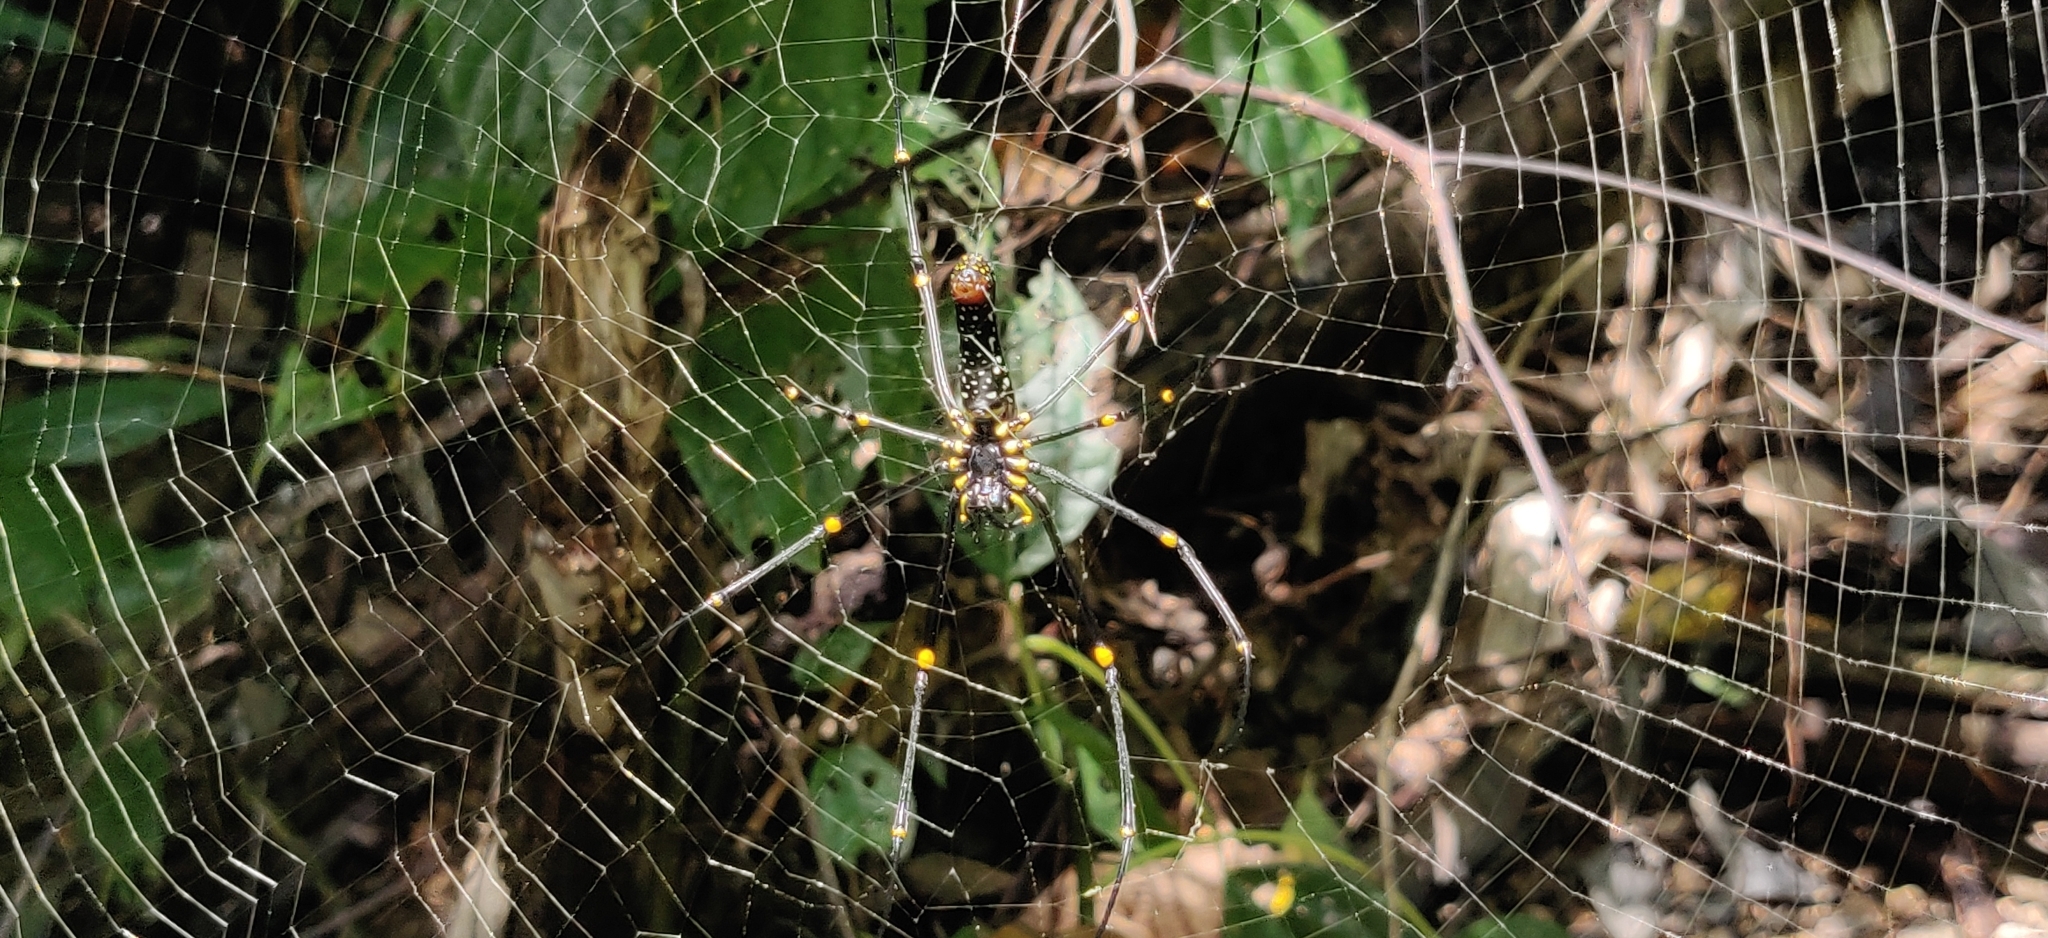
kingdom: Animalia
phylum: Arthropoda
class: Arachnida
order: Araneae
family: Araneidae
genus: Nephila
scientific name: Nephila pilipes
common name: Giant golden orb weaver
